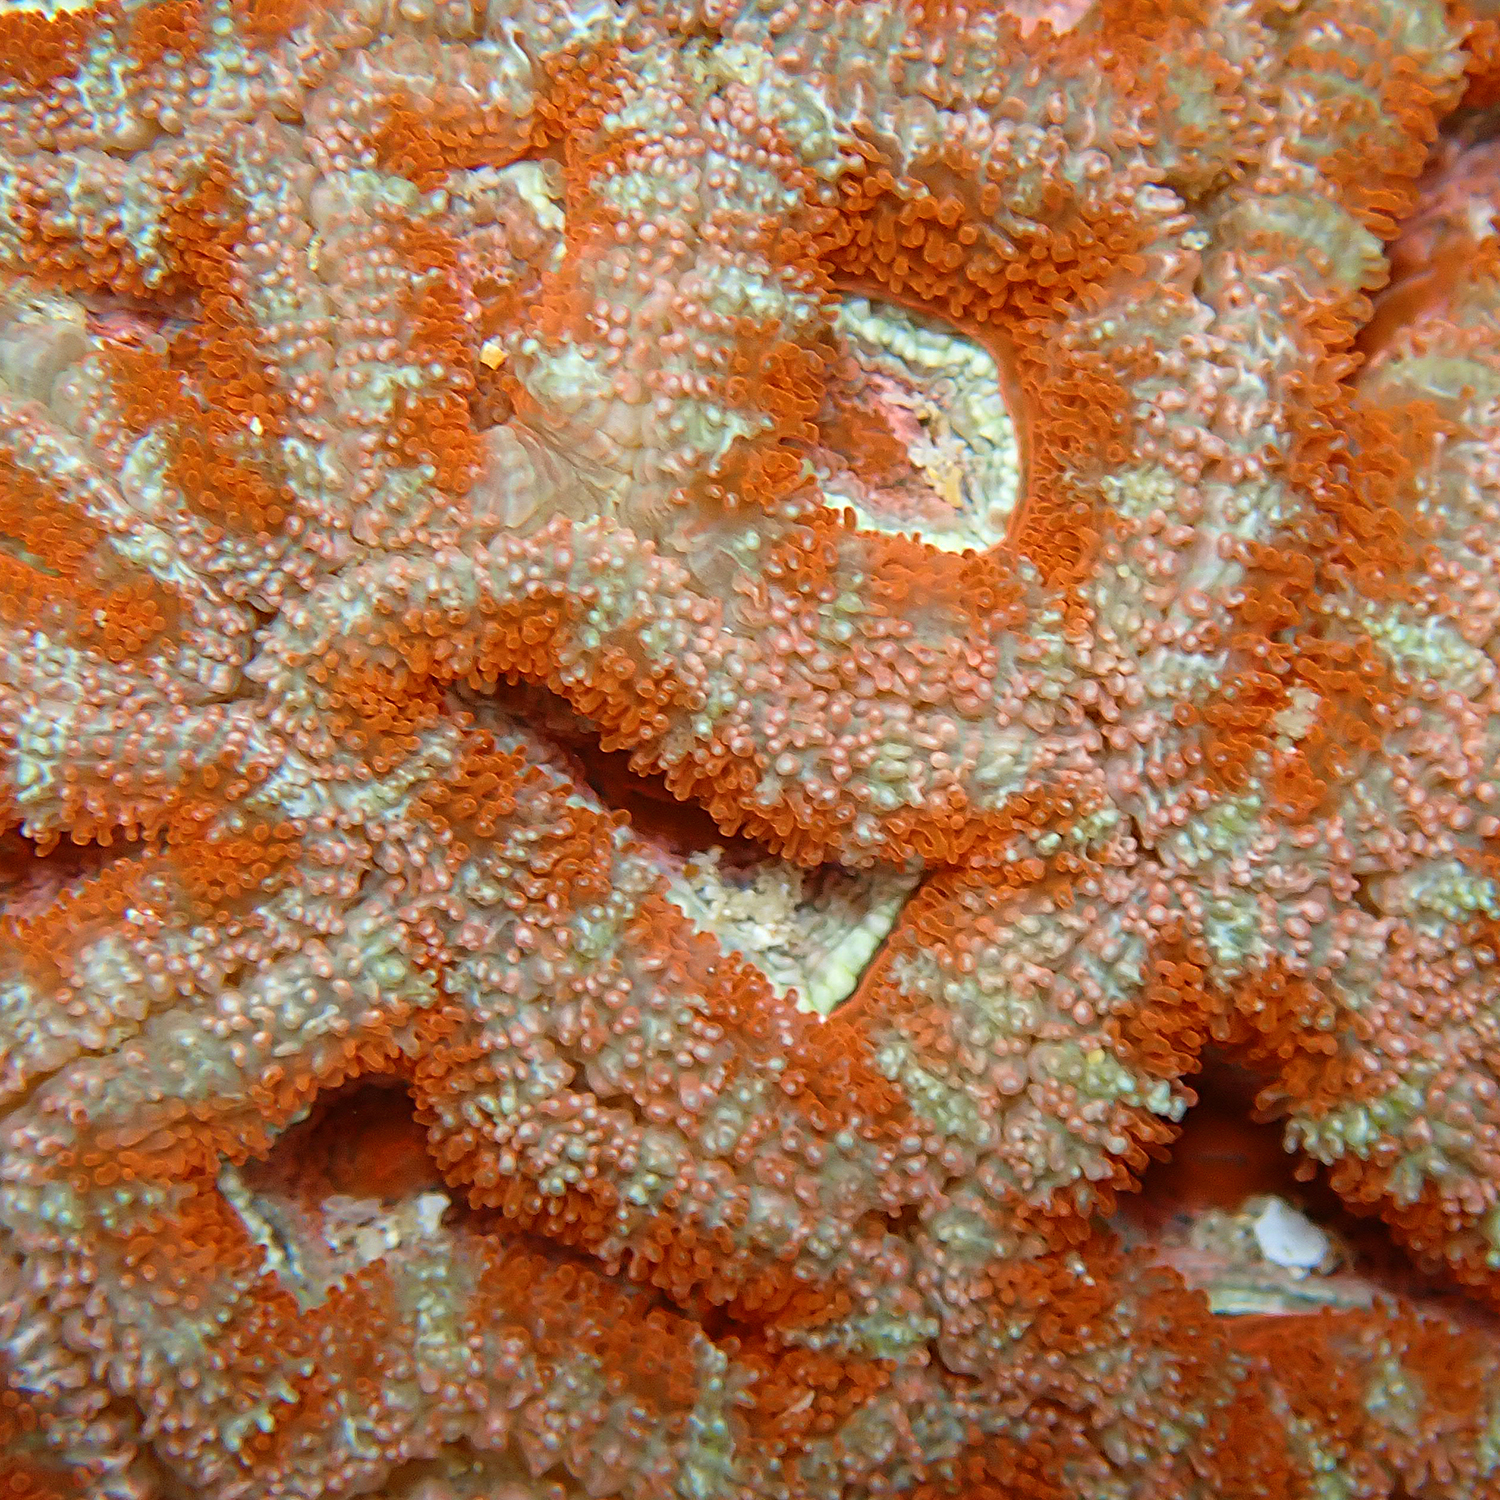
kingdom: Animalia
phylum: Cnidaria
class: Anthozoa
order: Scleractinia
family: Lobophylliidae
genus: Micromussa
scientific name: Micromussa lordhowensis
